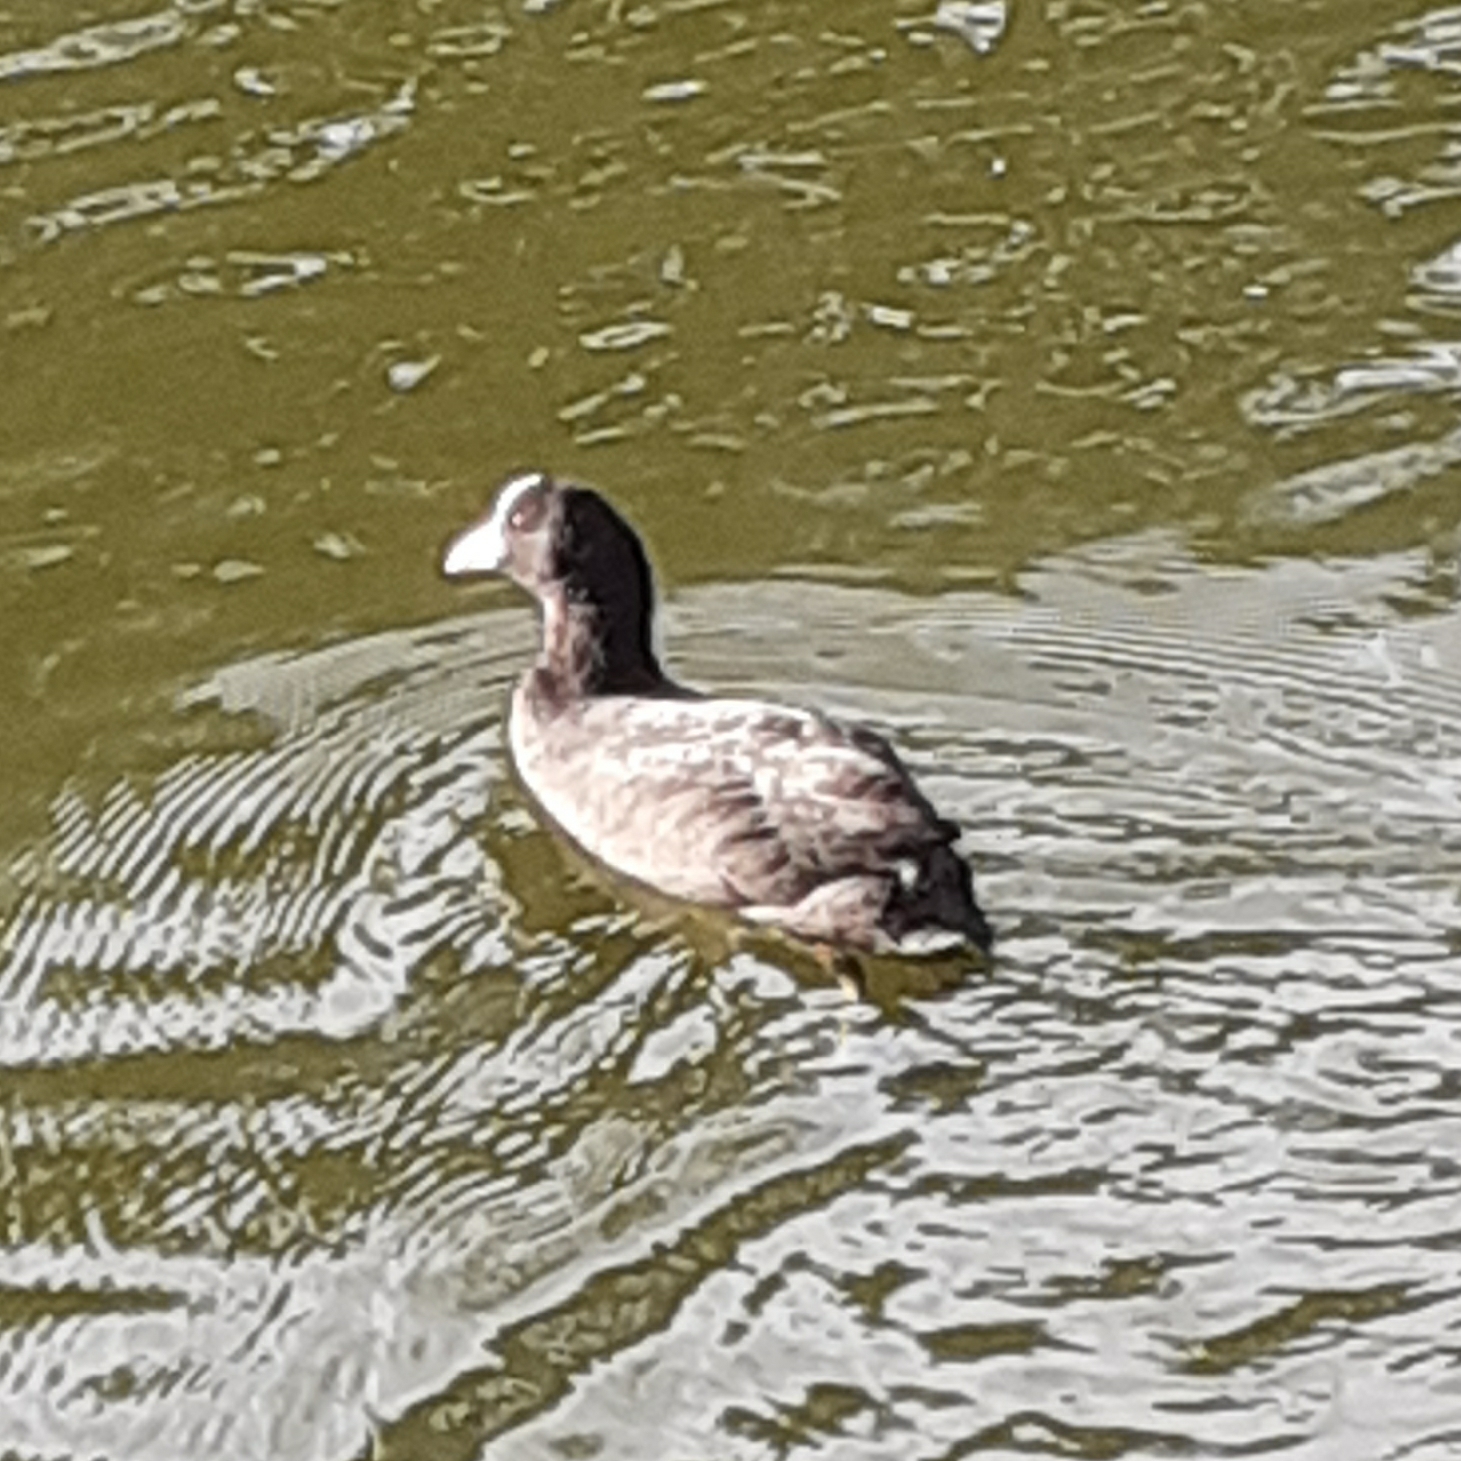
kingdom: Animalia
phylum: Chordata
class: Aves
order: Gruiformes
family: Rallidae
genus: Fulica
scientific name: Fulica atra
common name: Eurasian coot
